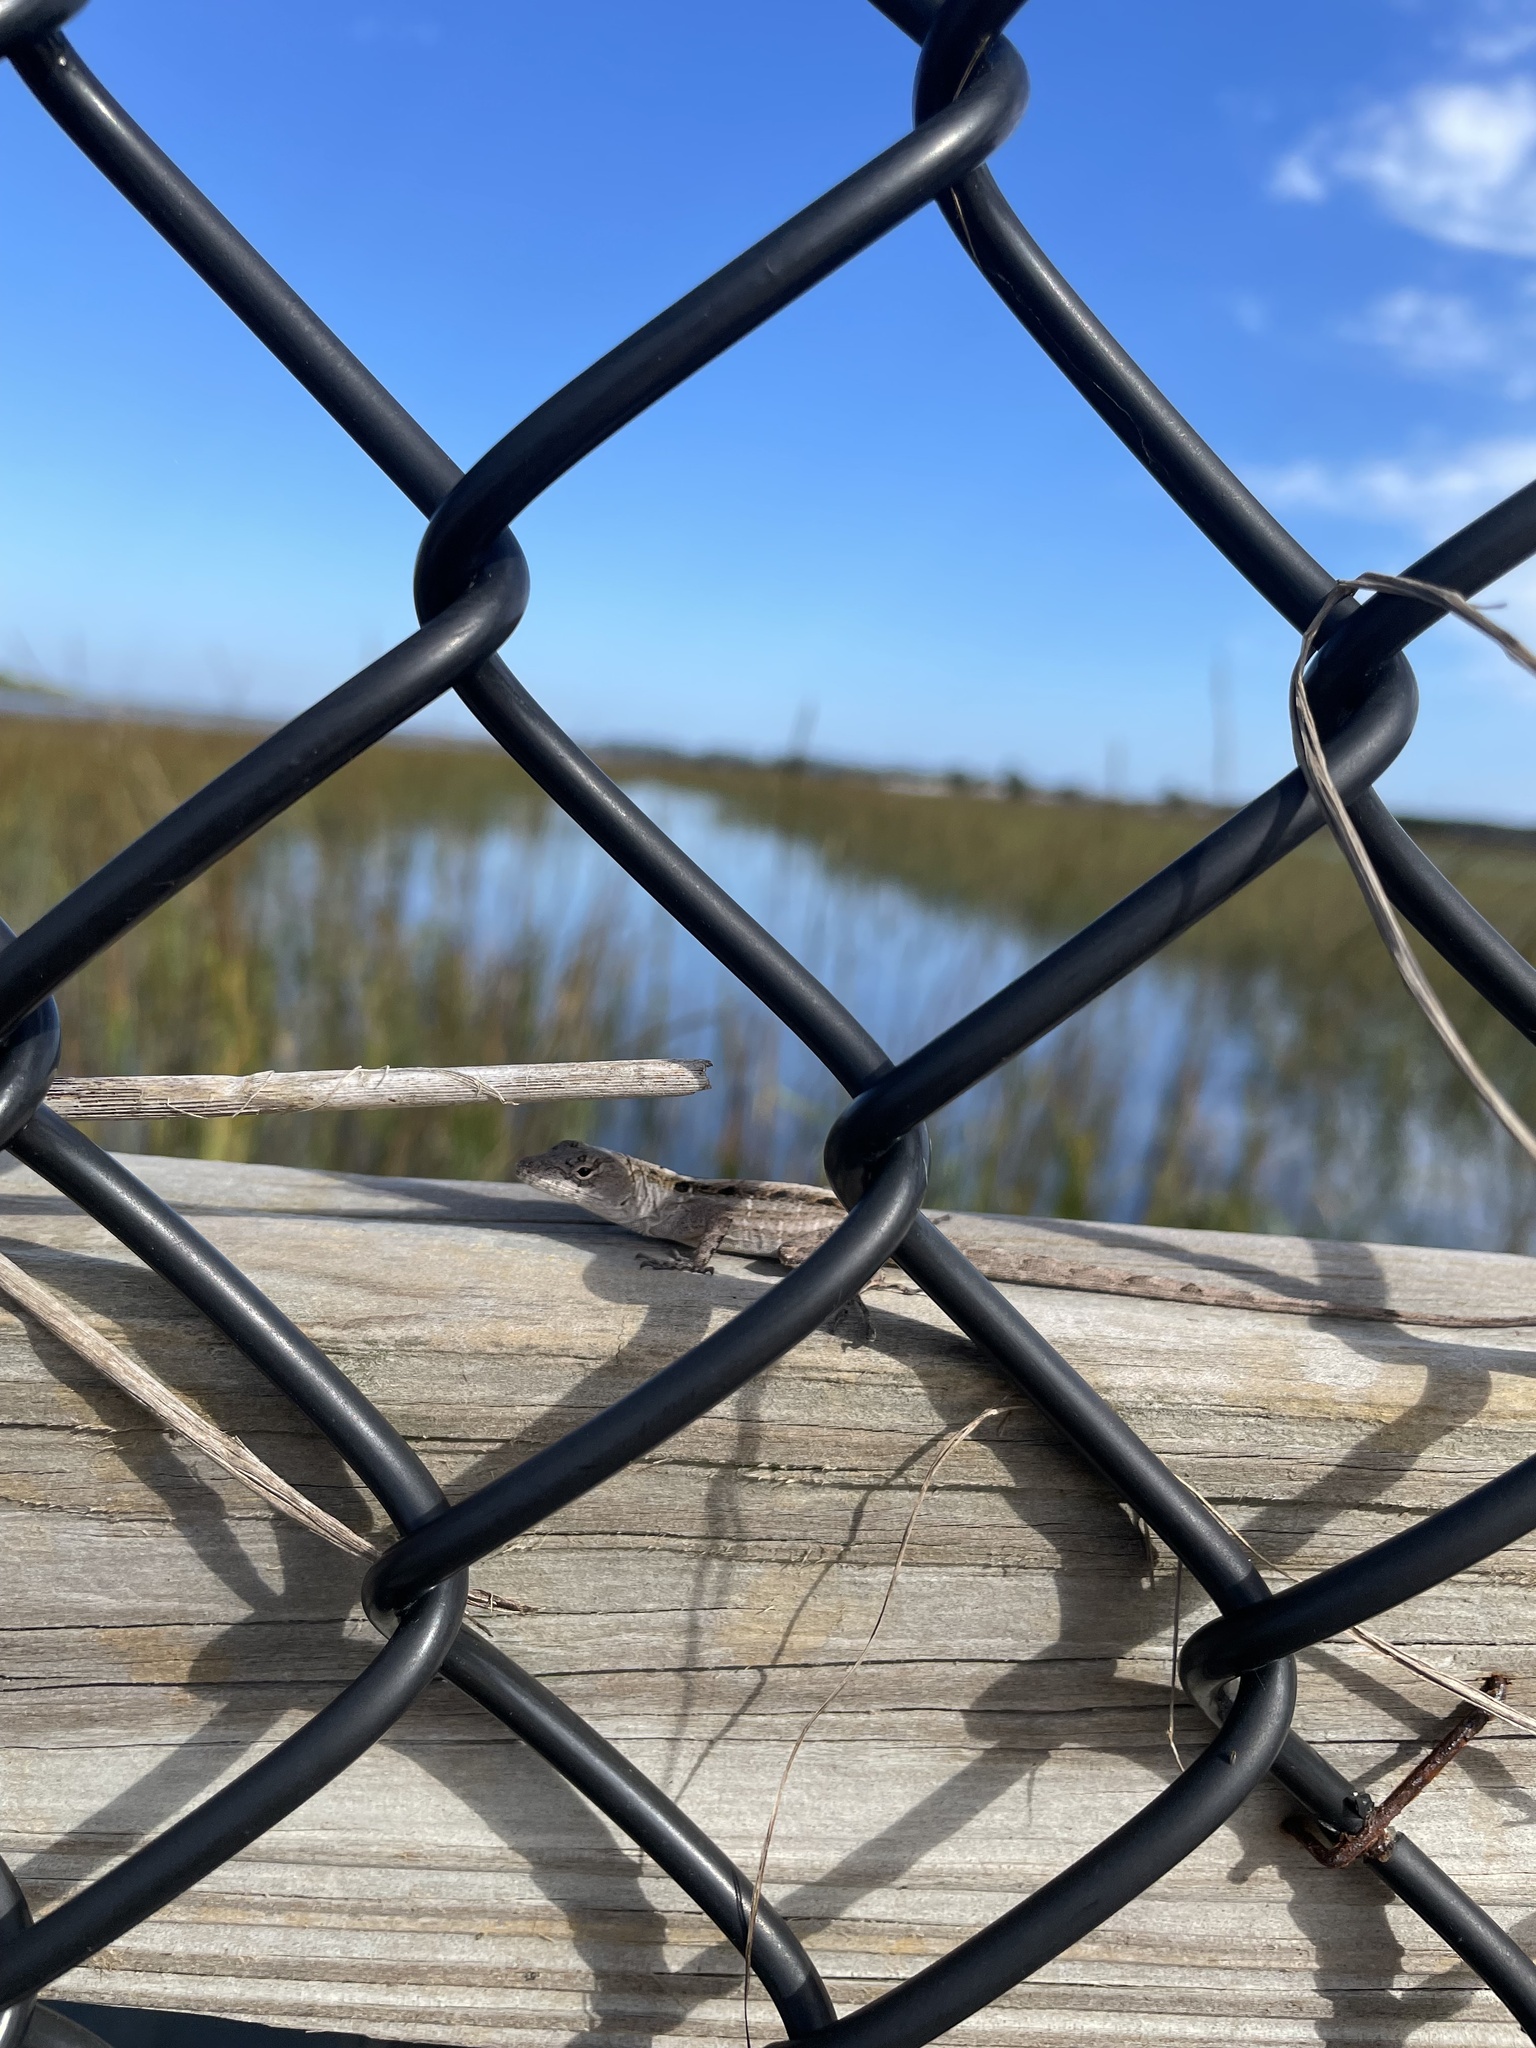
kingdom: Animalia
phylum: Chordata
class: Squamata
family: Dactyloidae
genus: Anolis
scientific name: Anolis sagrei
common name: Brown anole
